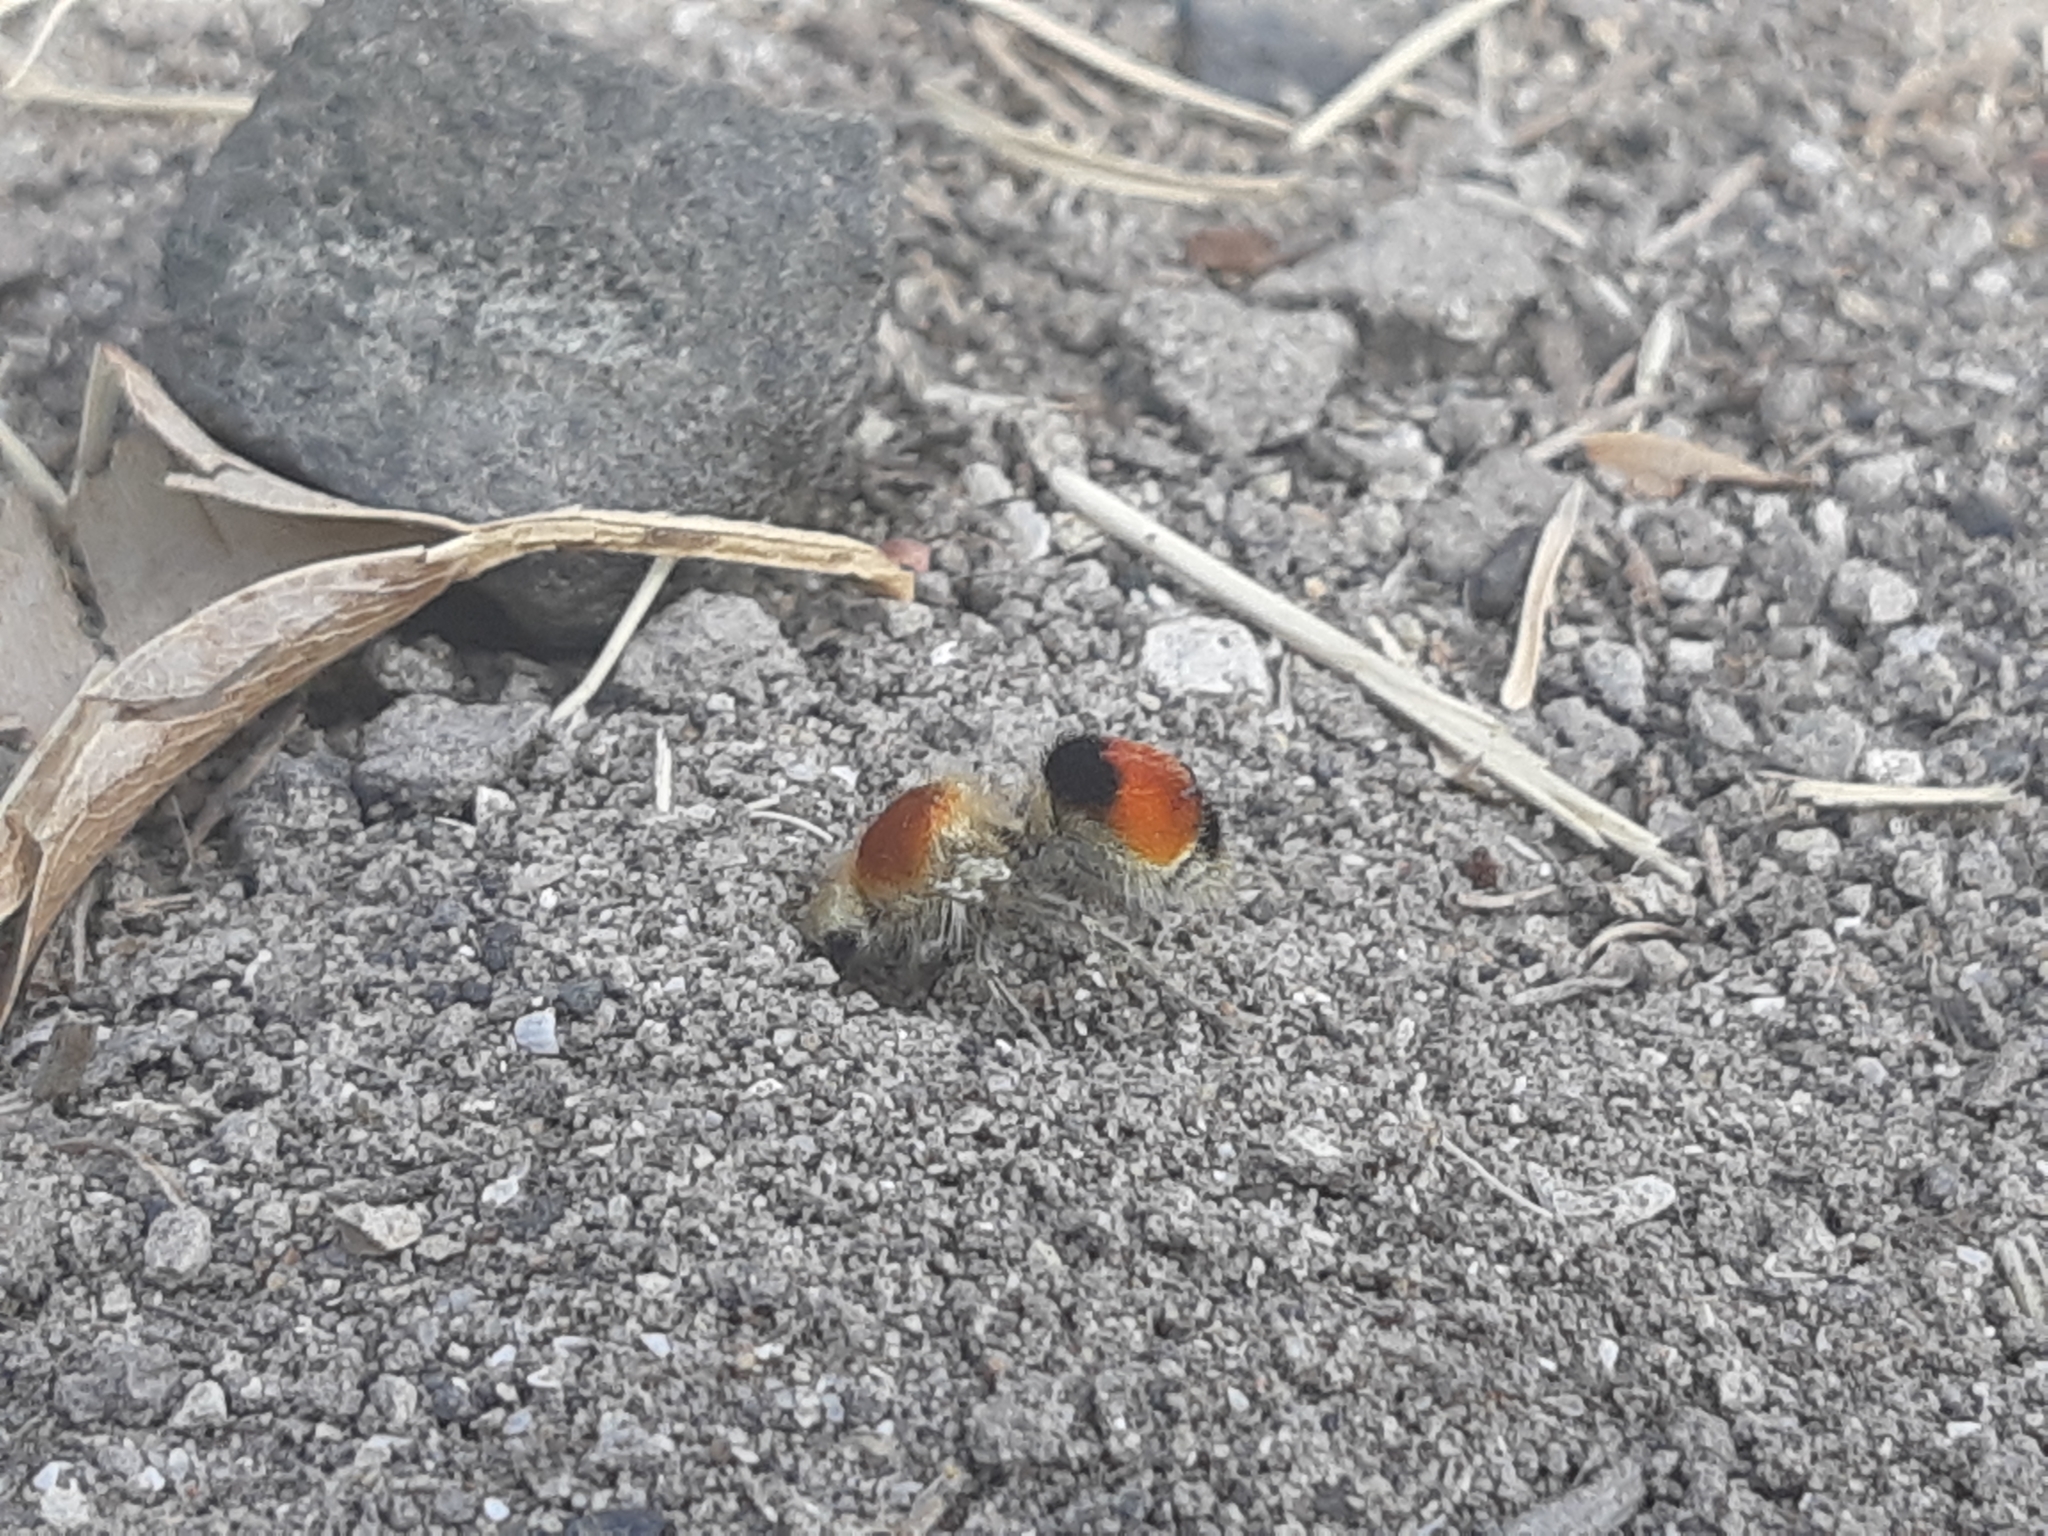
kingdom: Animalia
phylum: Arthropoda
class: Insecta
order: Hymenoptera
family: Mutillidae
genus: Quwitilla
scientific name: Quwitilla bellatrix
